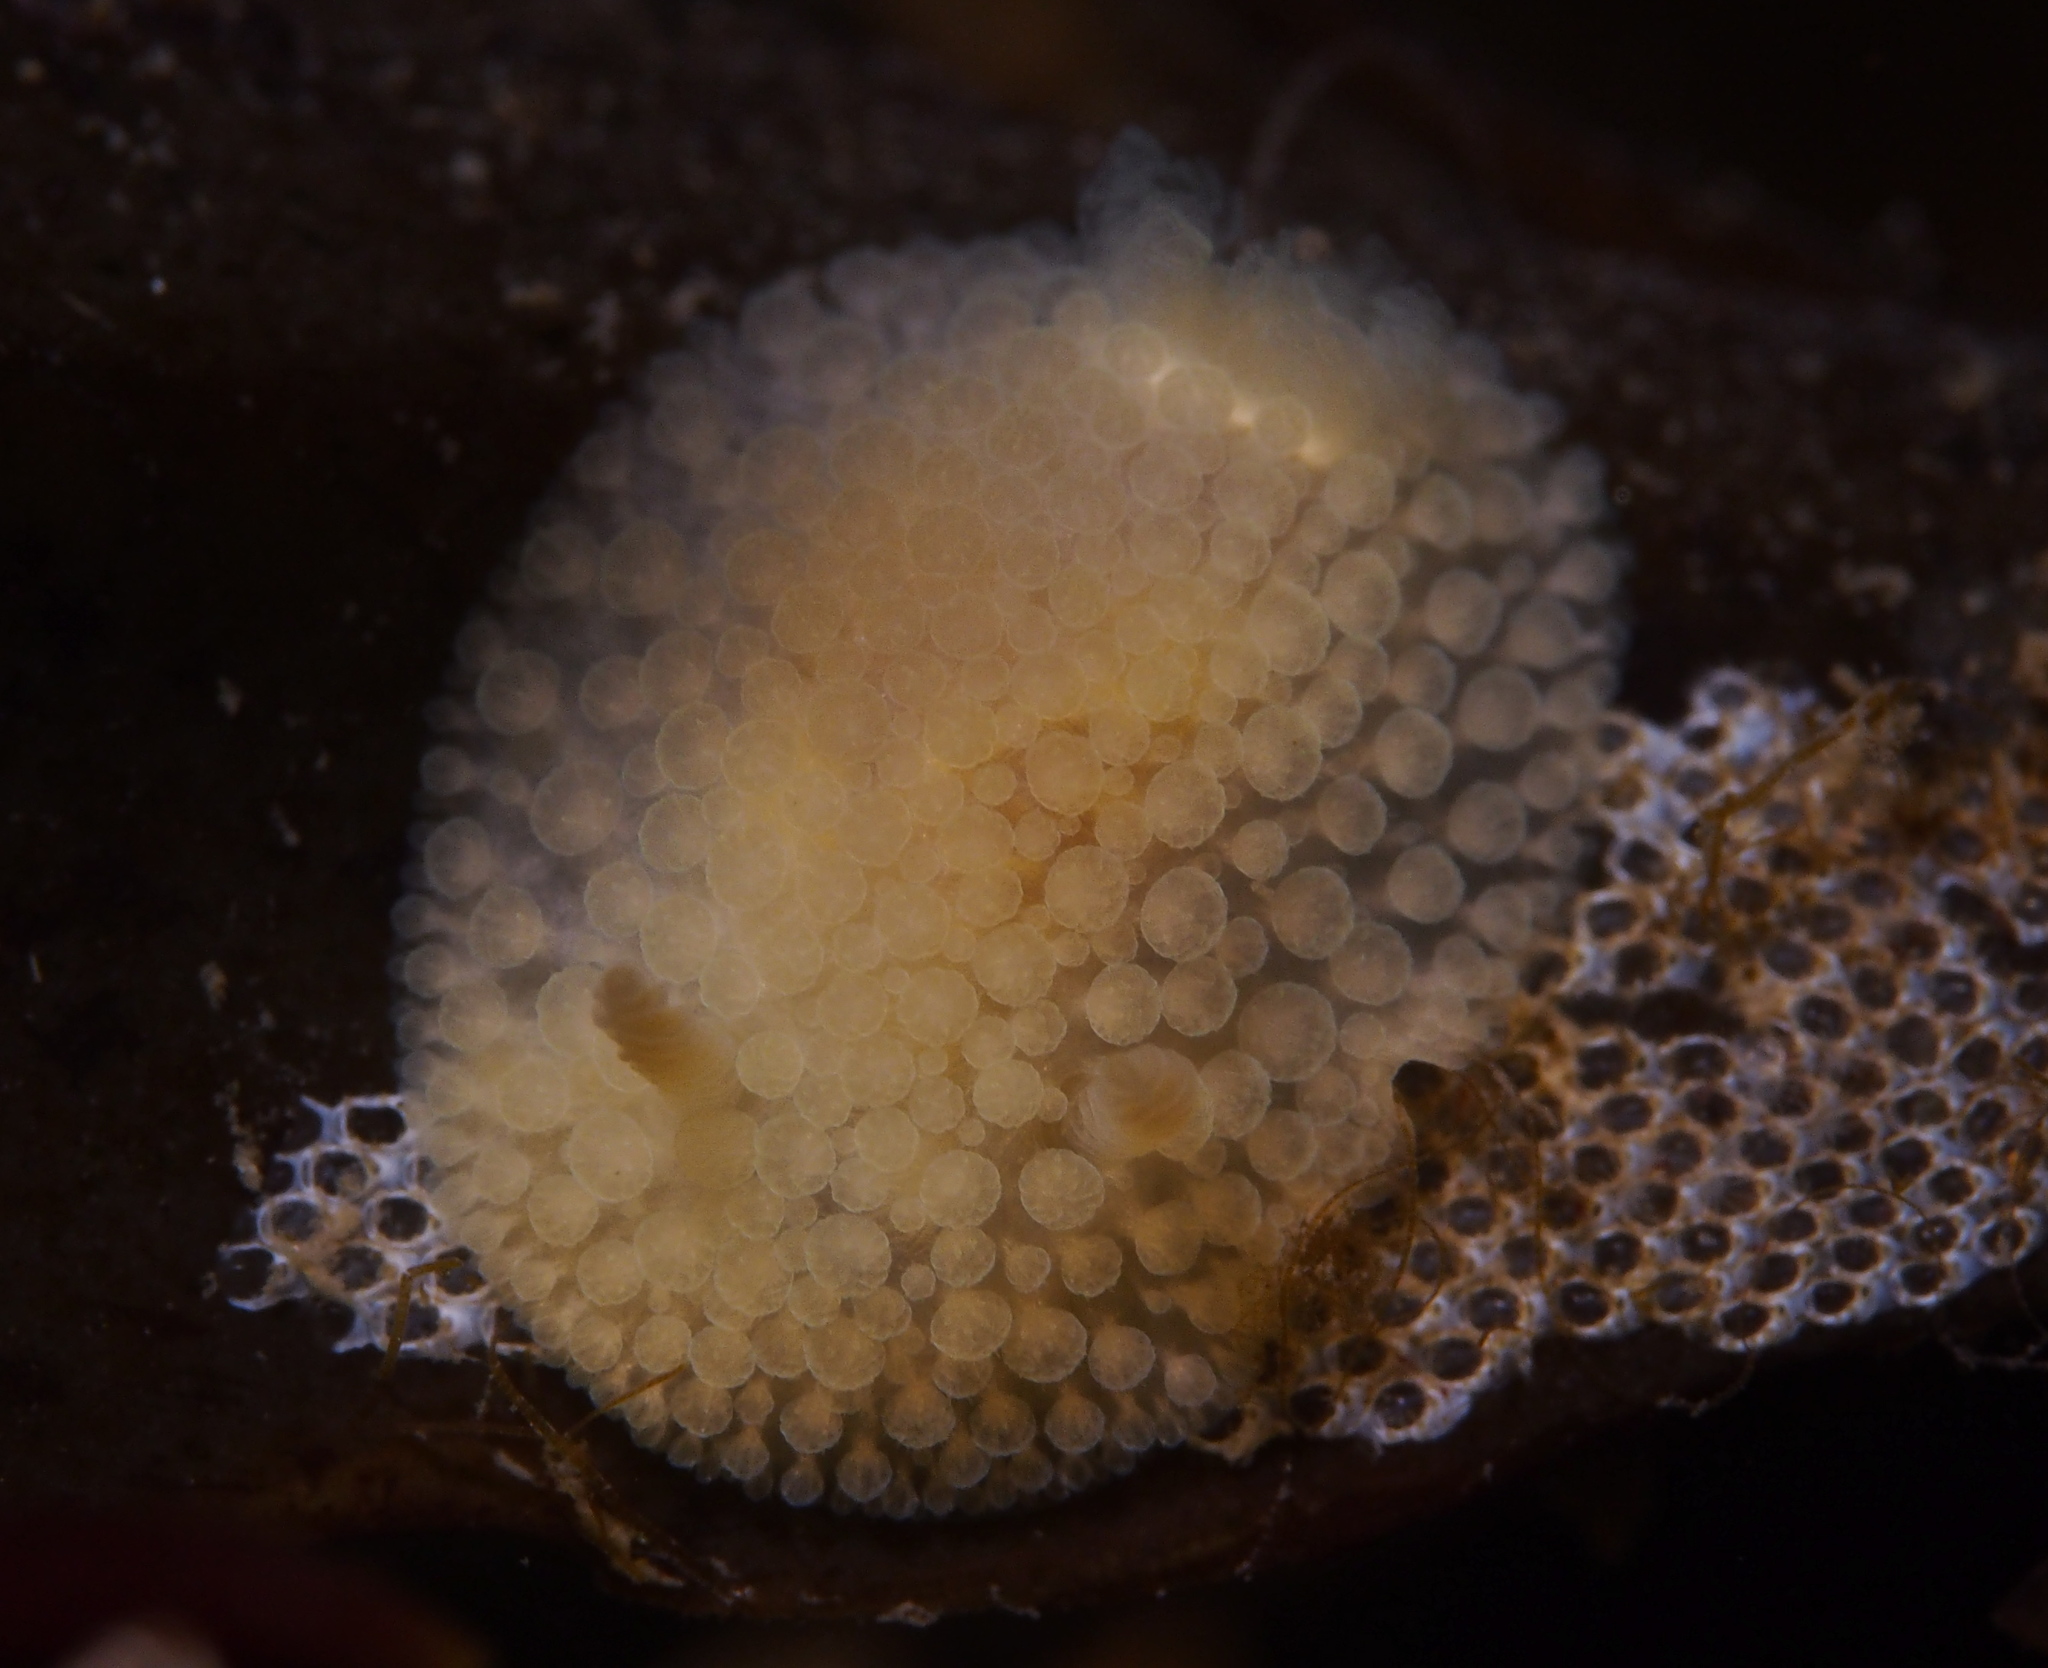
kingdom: Animalia
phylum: Mollusca
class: Gastropoda
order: Nudibranchia
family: Onchidorididae
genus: Onchidoris
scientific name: Onchidoris muricata
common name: Rough doris
